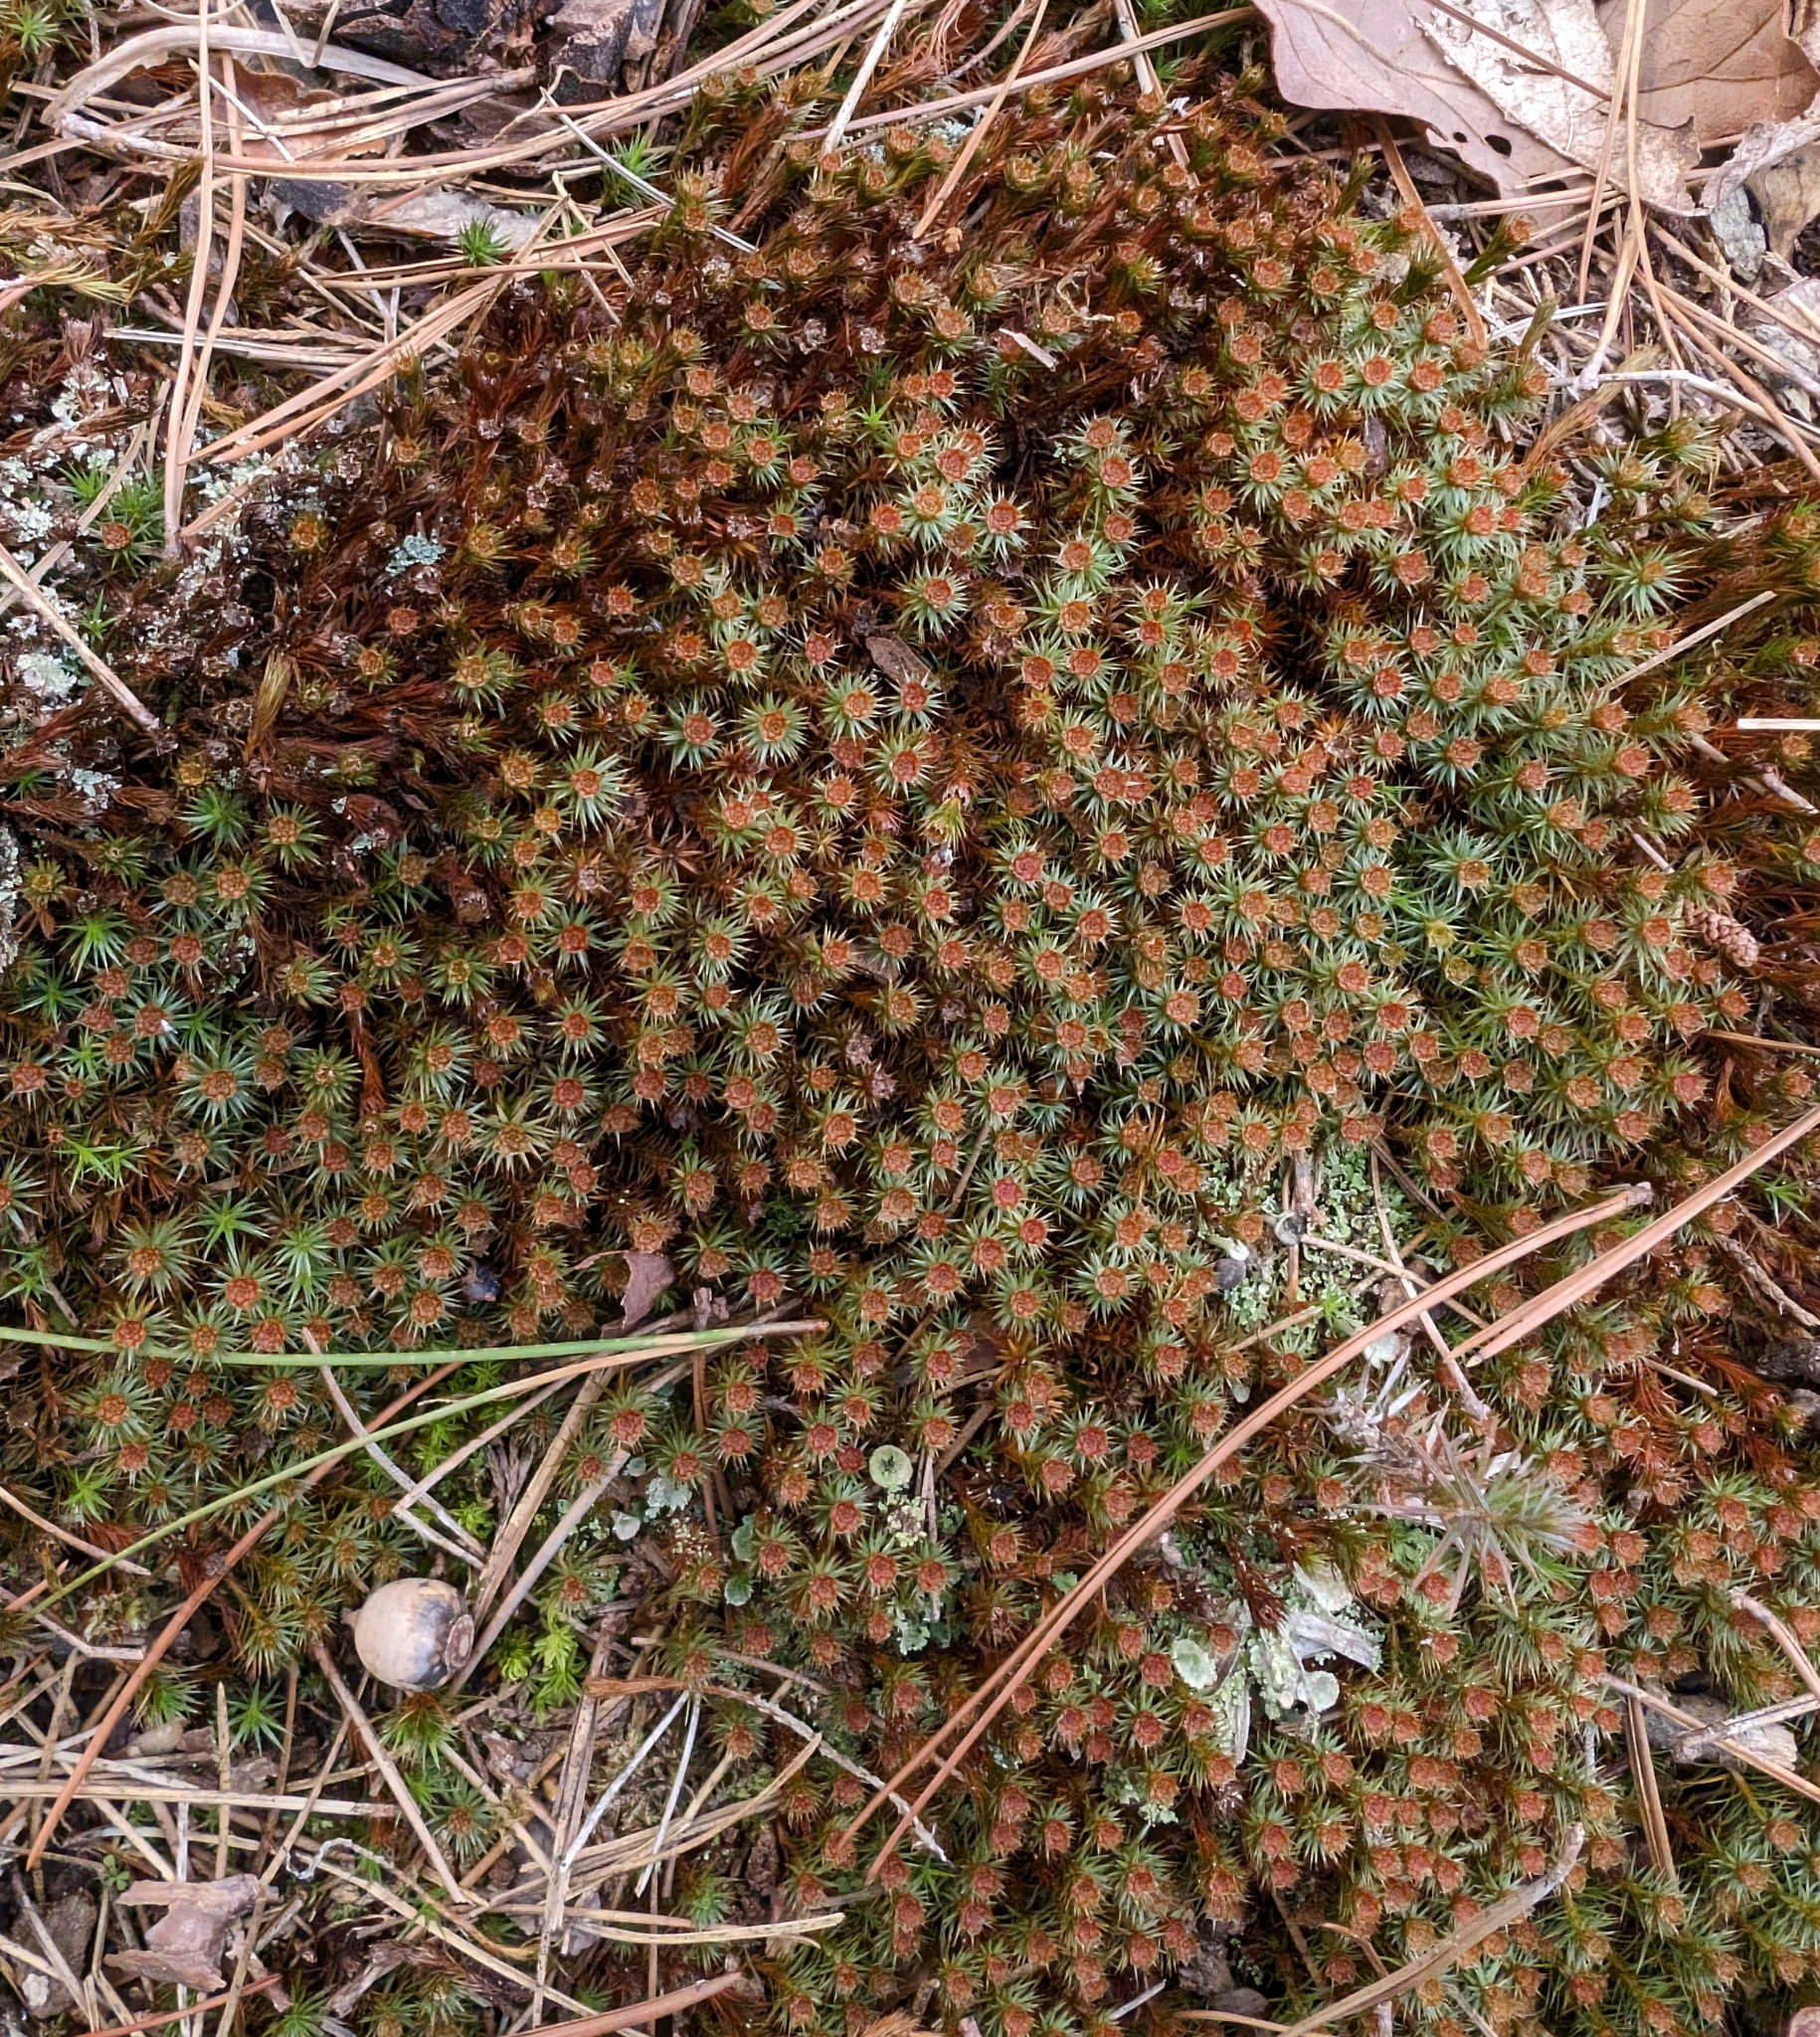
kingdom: Plantae
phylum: Bryophyta
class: Polytrichopsida
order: Polytrichales
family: Polytrichaceae
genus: Polytrichum
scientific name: Polytrichum juniperinum
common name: Juniper haircap moss
